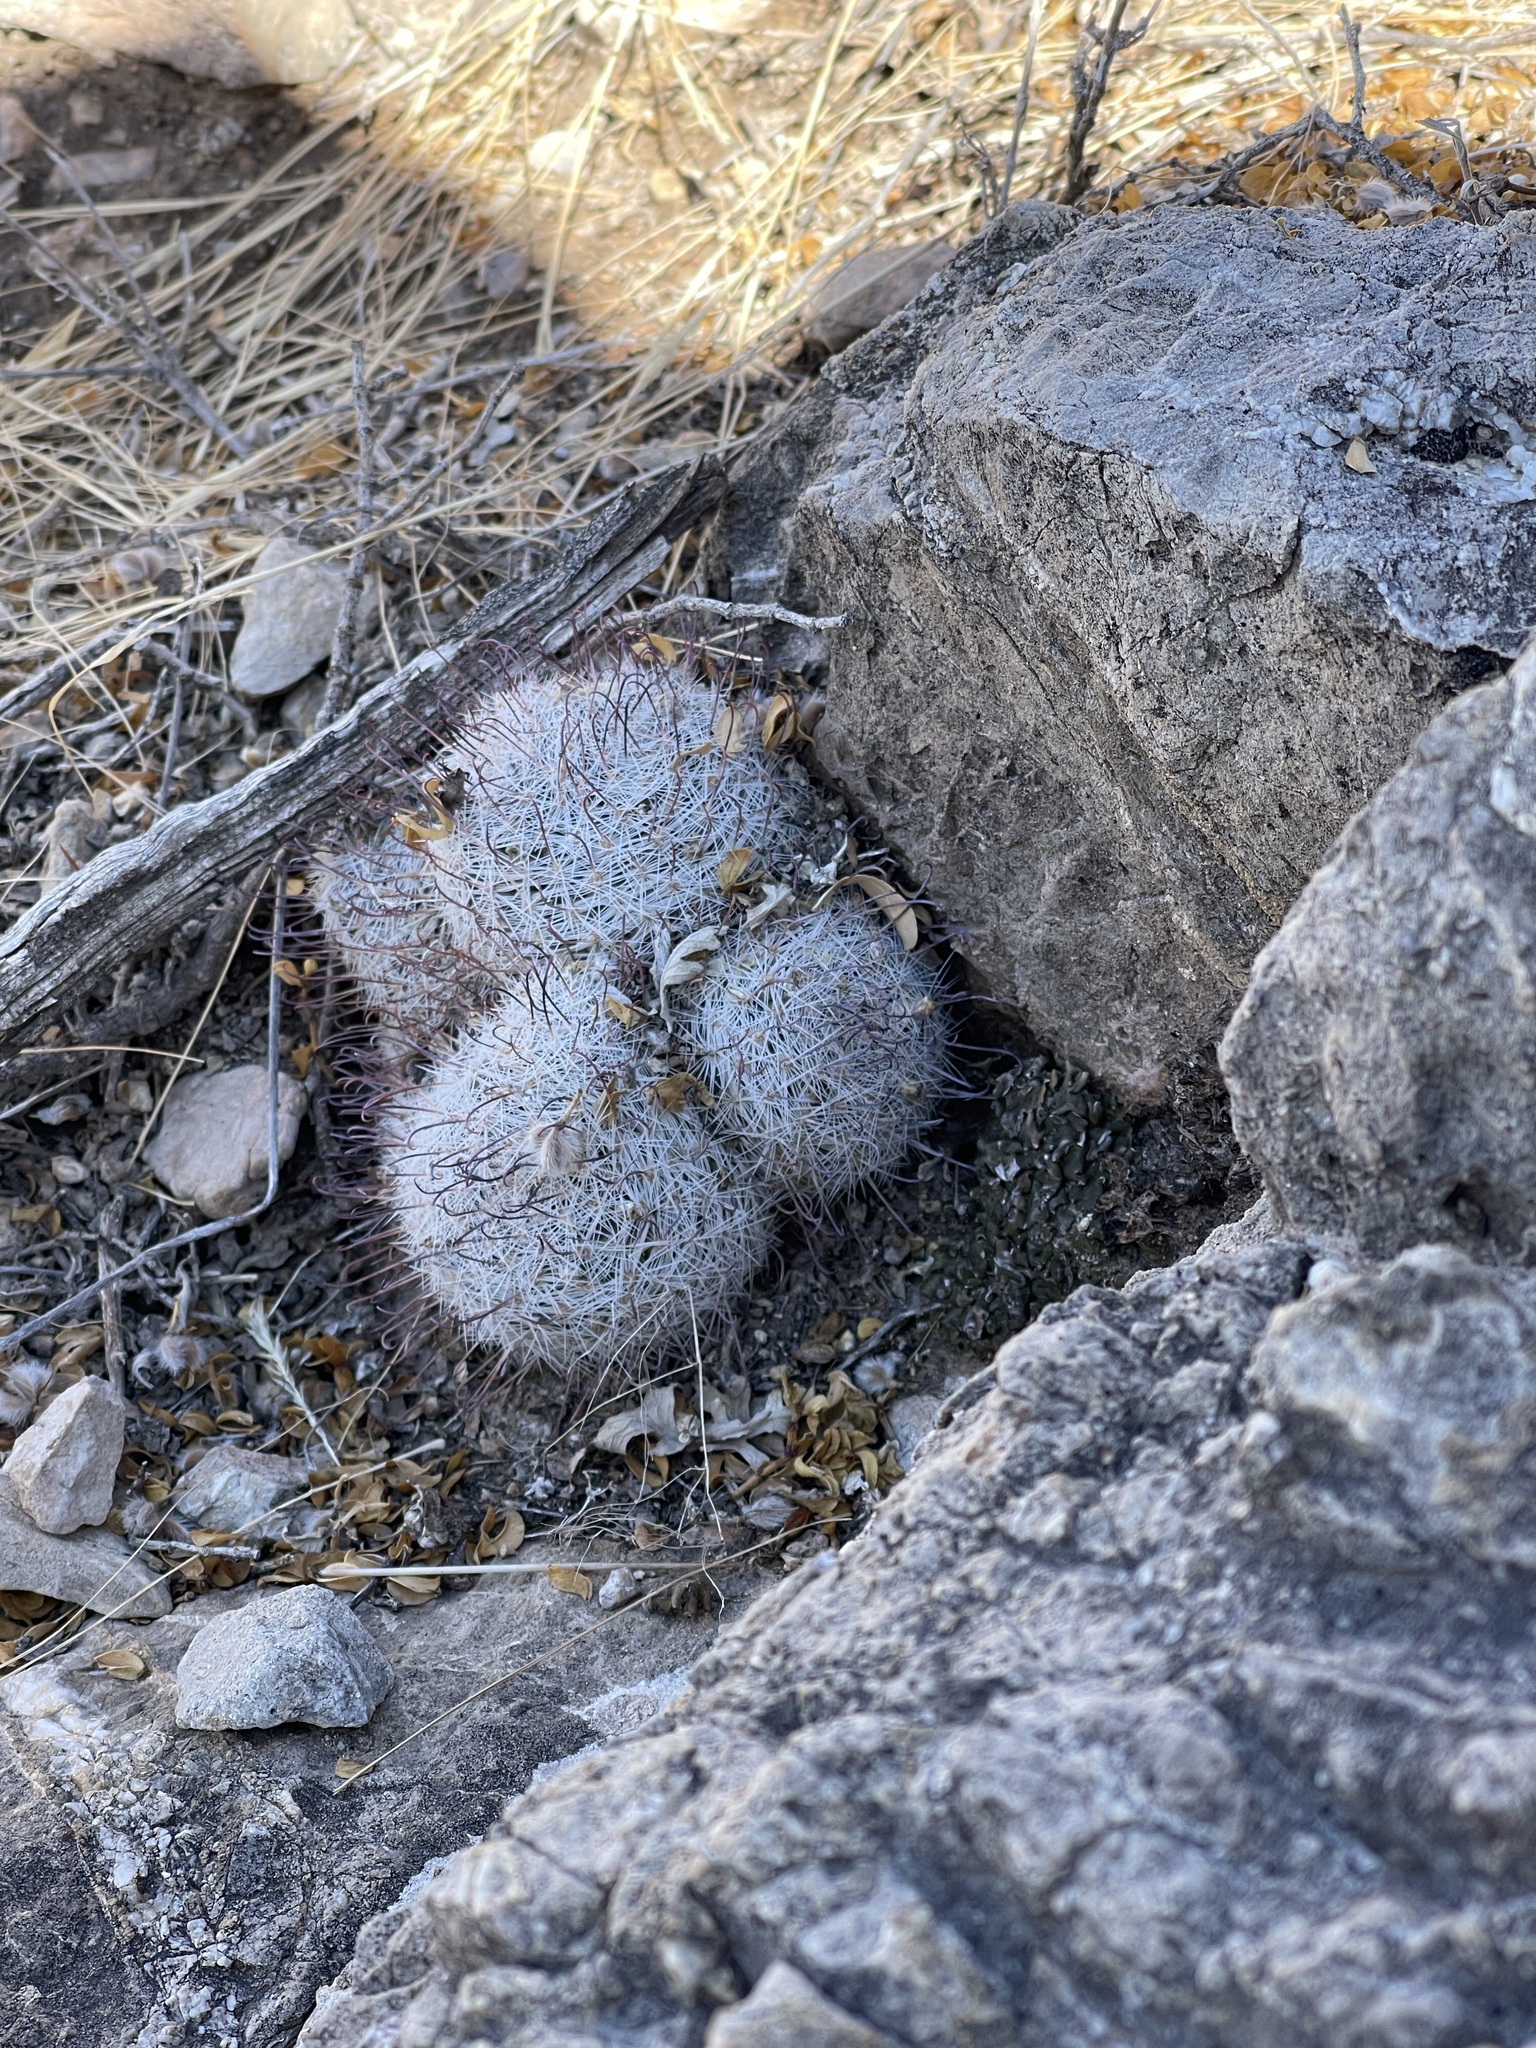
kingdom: Plantae
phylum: Tracheophyta
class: Magnoliopsida
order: Caryophyllales
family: Cactaceae
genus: Cochemiea
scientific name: Cochemiea grahamii
